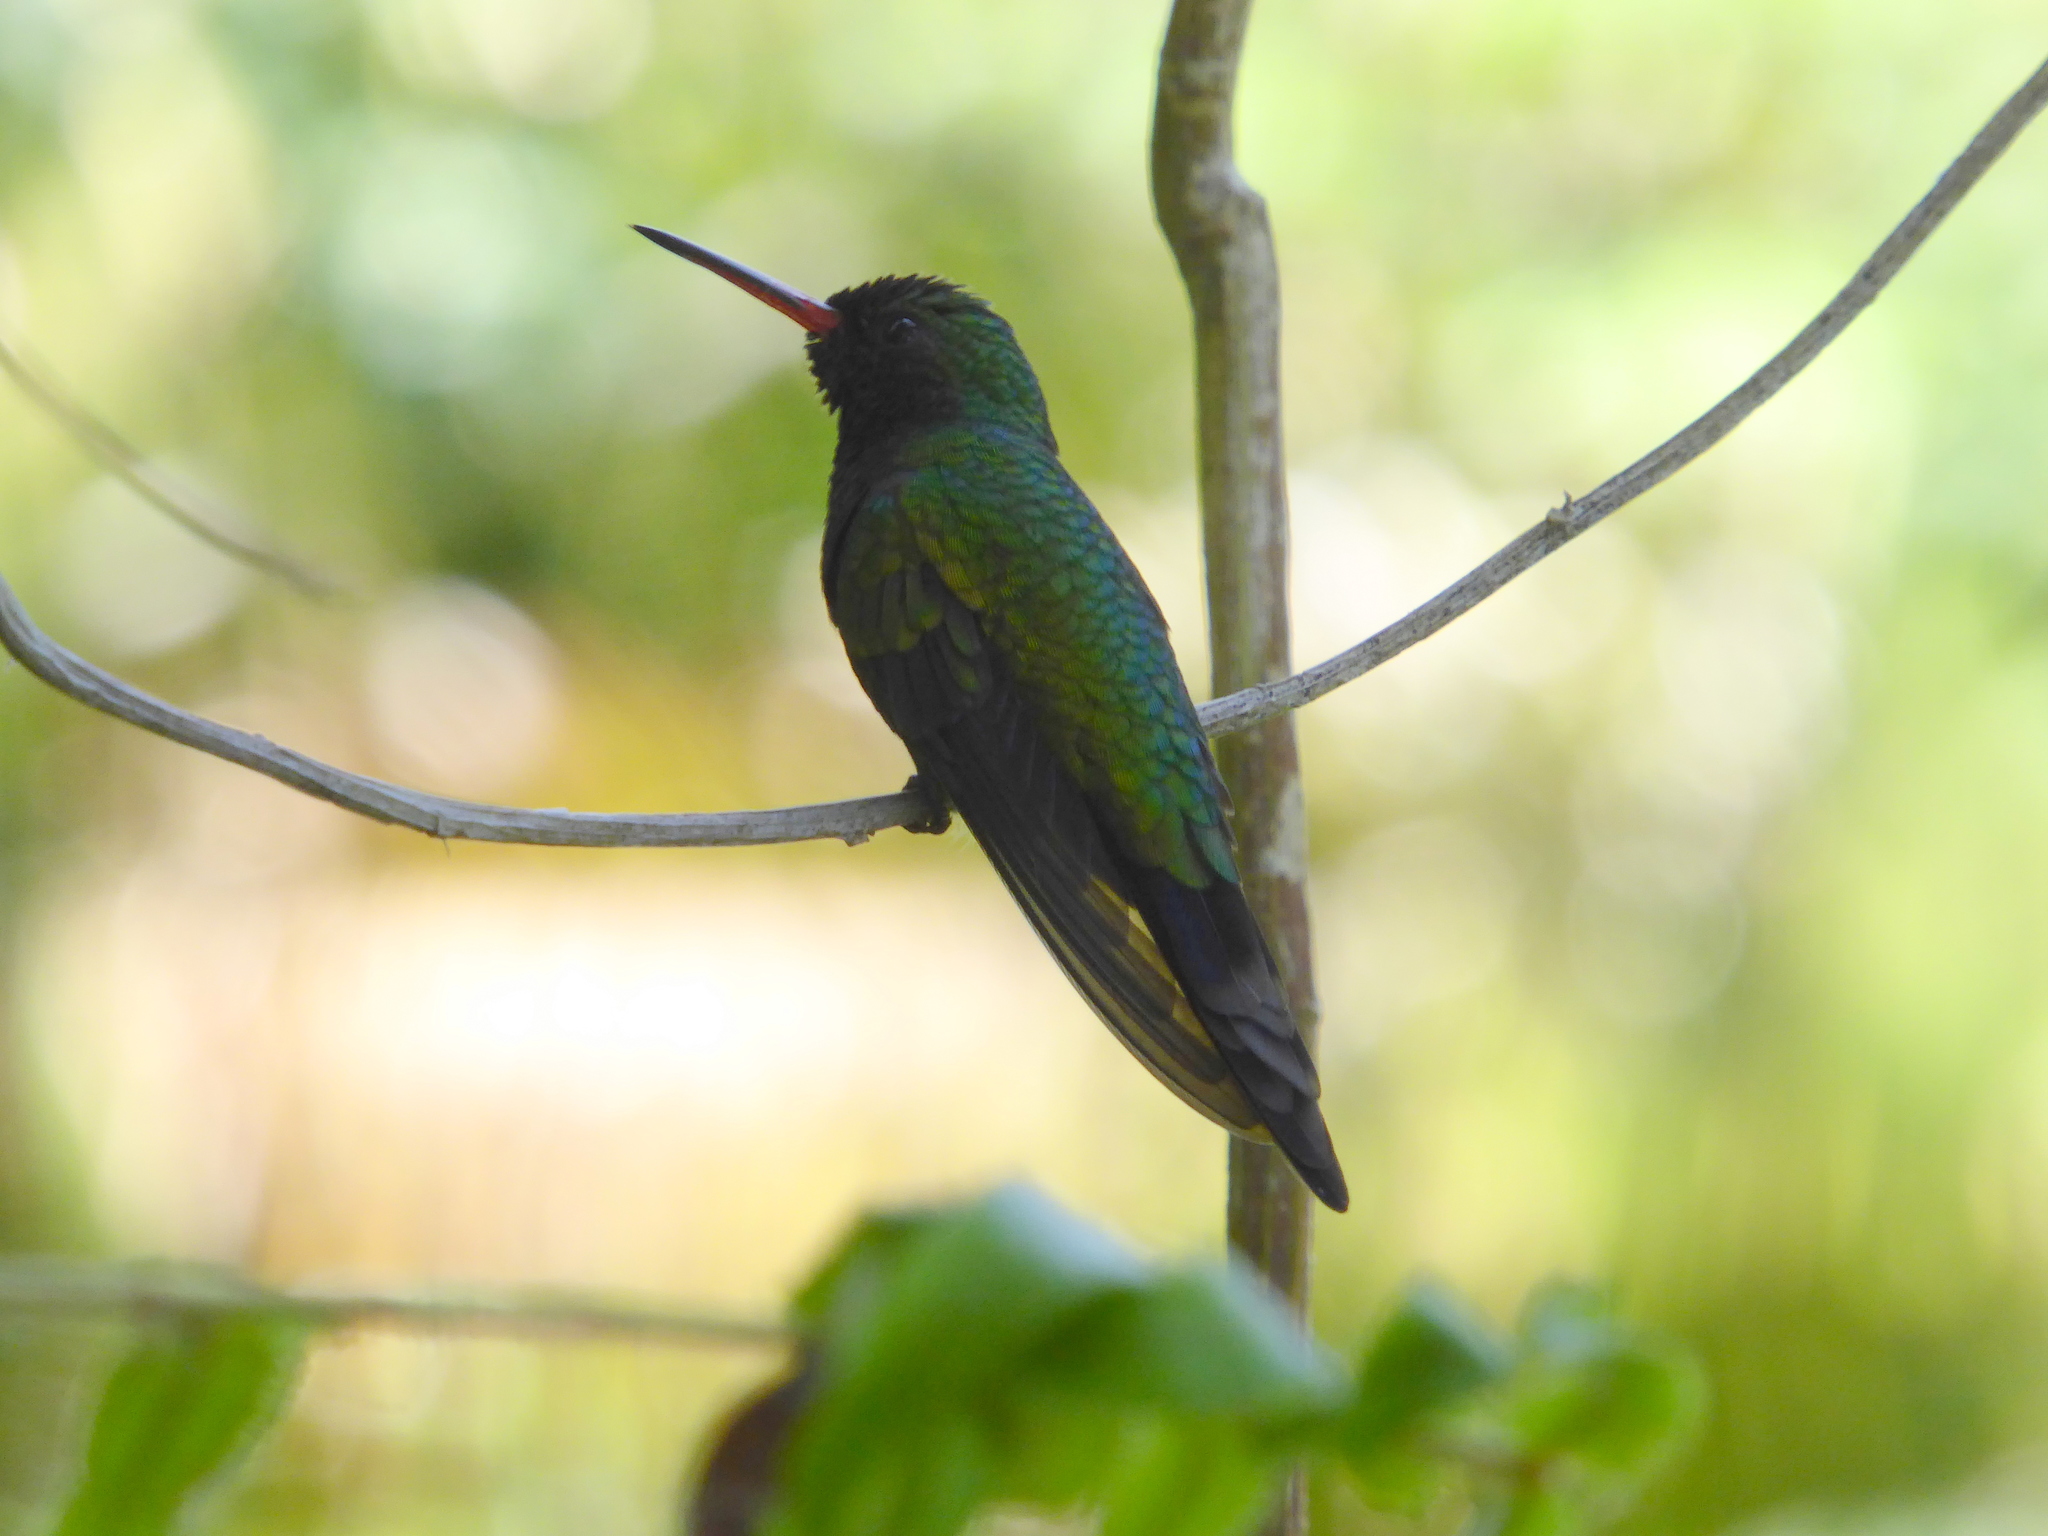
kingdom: Animalia
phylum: Chordata
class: Aves
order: Apodiformes
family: Trochilidae
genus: Cynanthus
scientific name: Cynanthus canivetii
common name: Canivet's emerald
